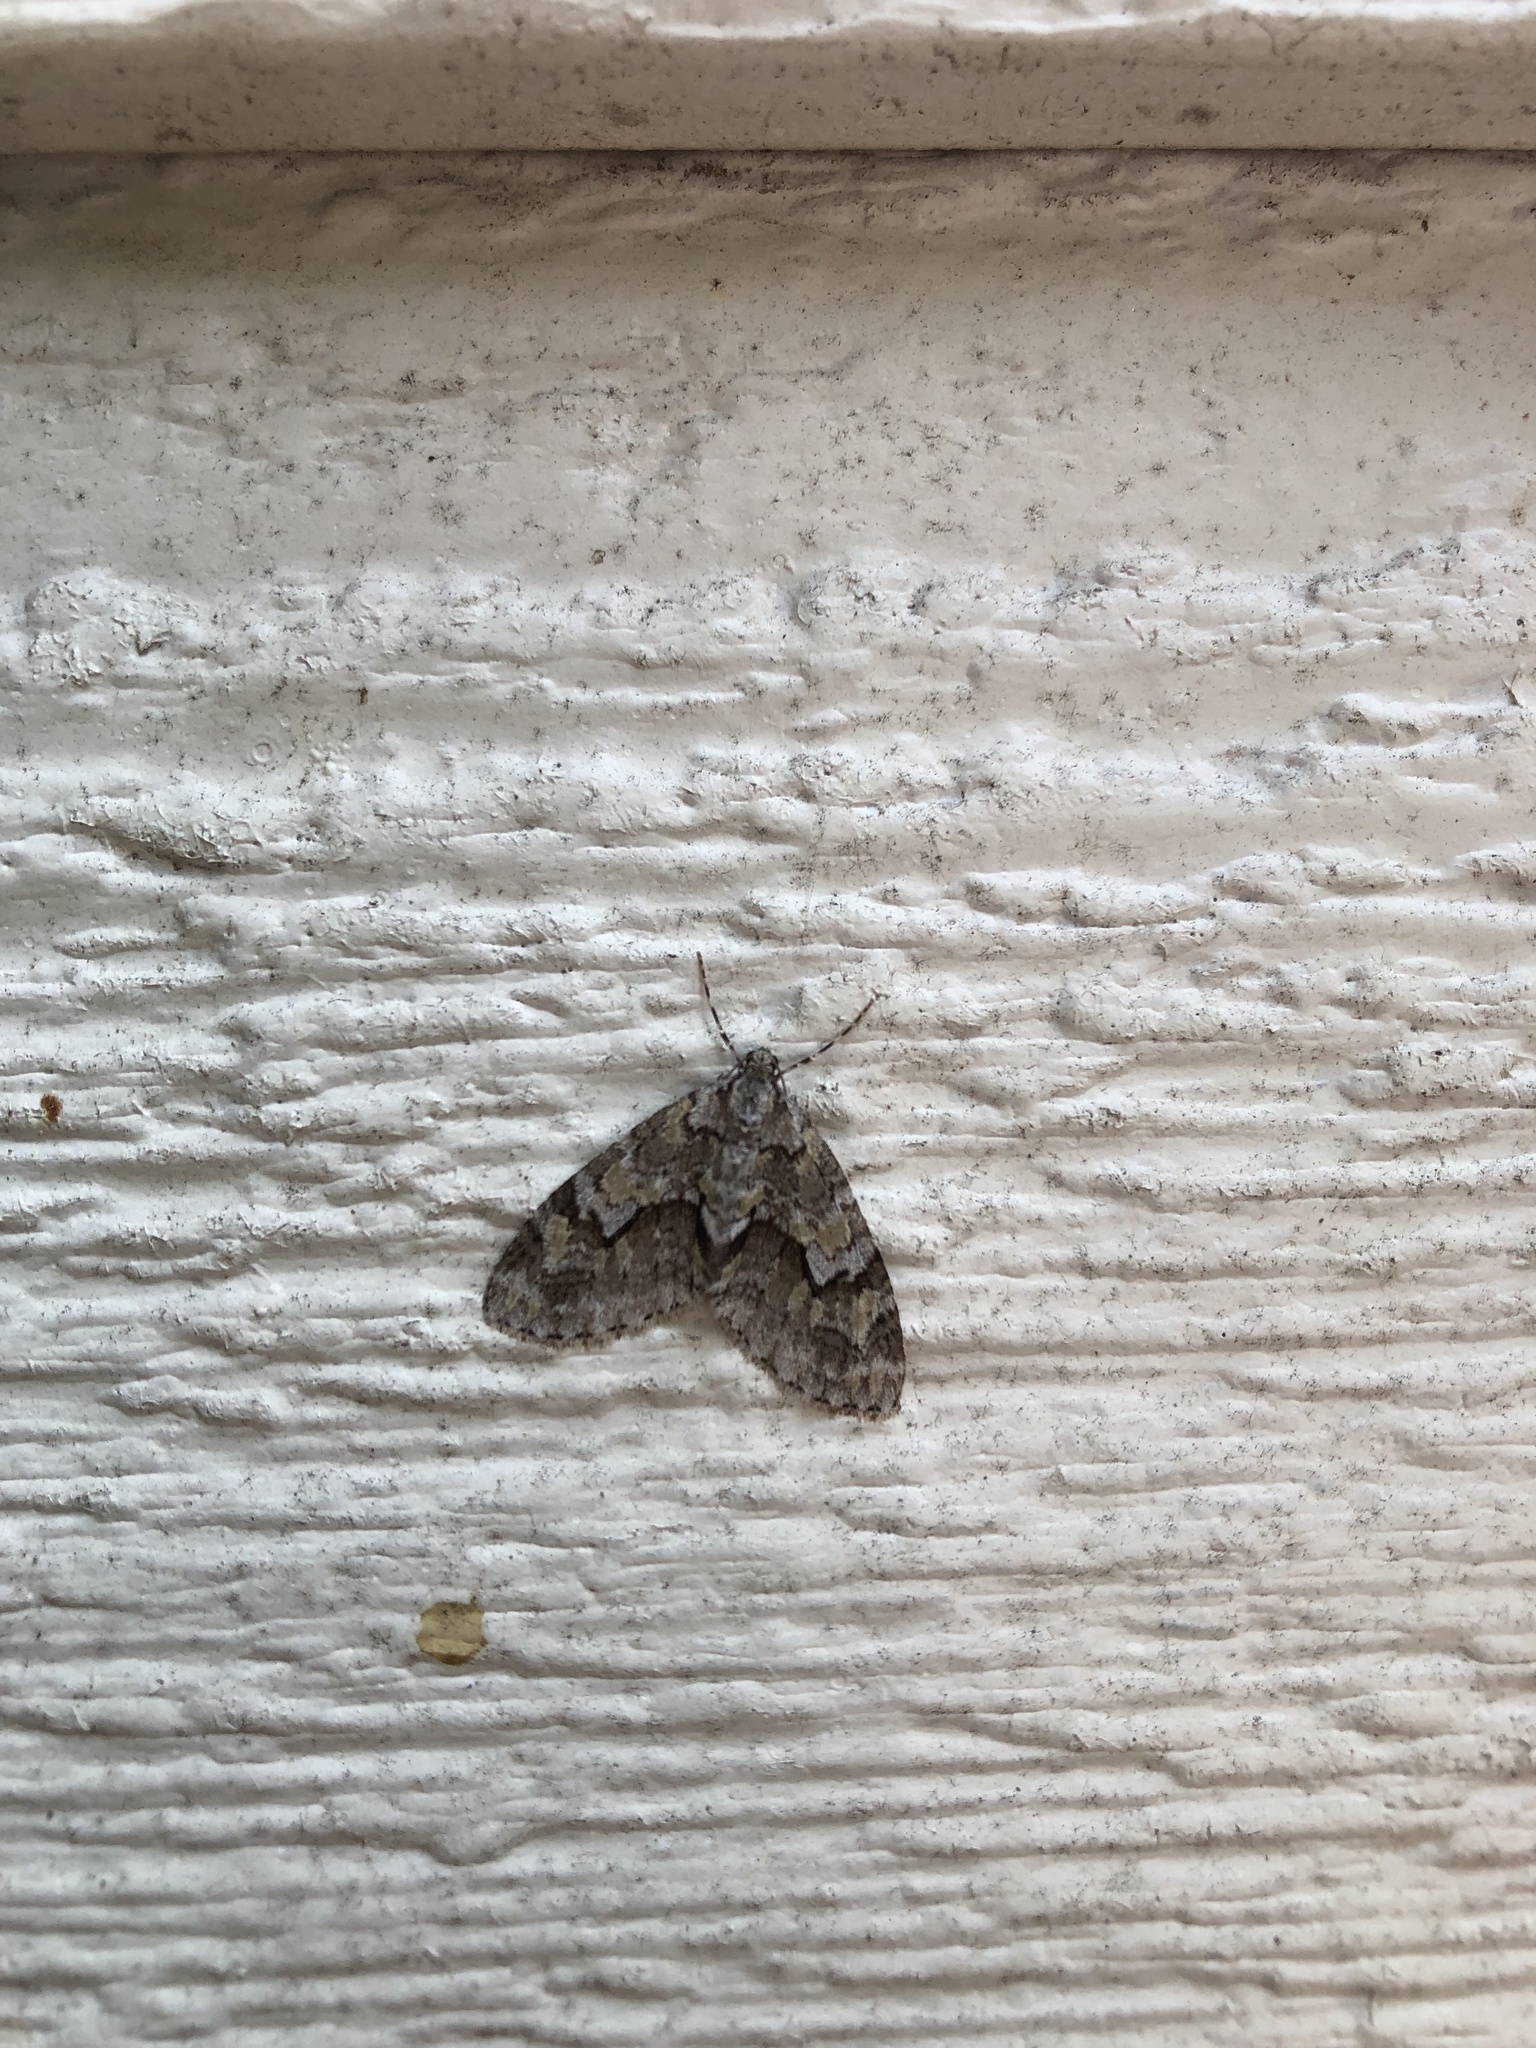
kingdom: Animalia
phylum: Arthropoda
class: Insecta
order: Lepidoptera
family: Geometridae
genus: Cladara
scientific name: Cladara limitaria
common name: Mottled gray carpet
